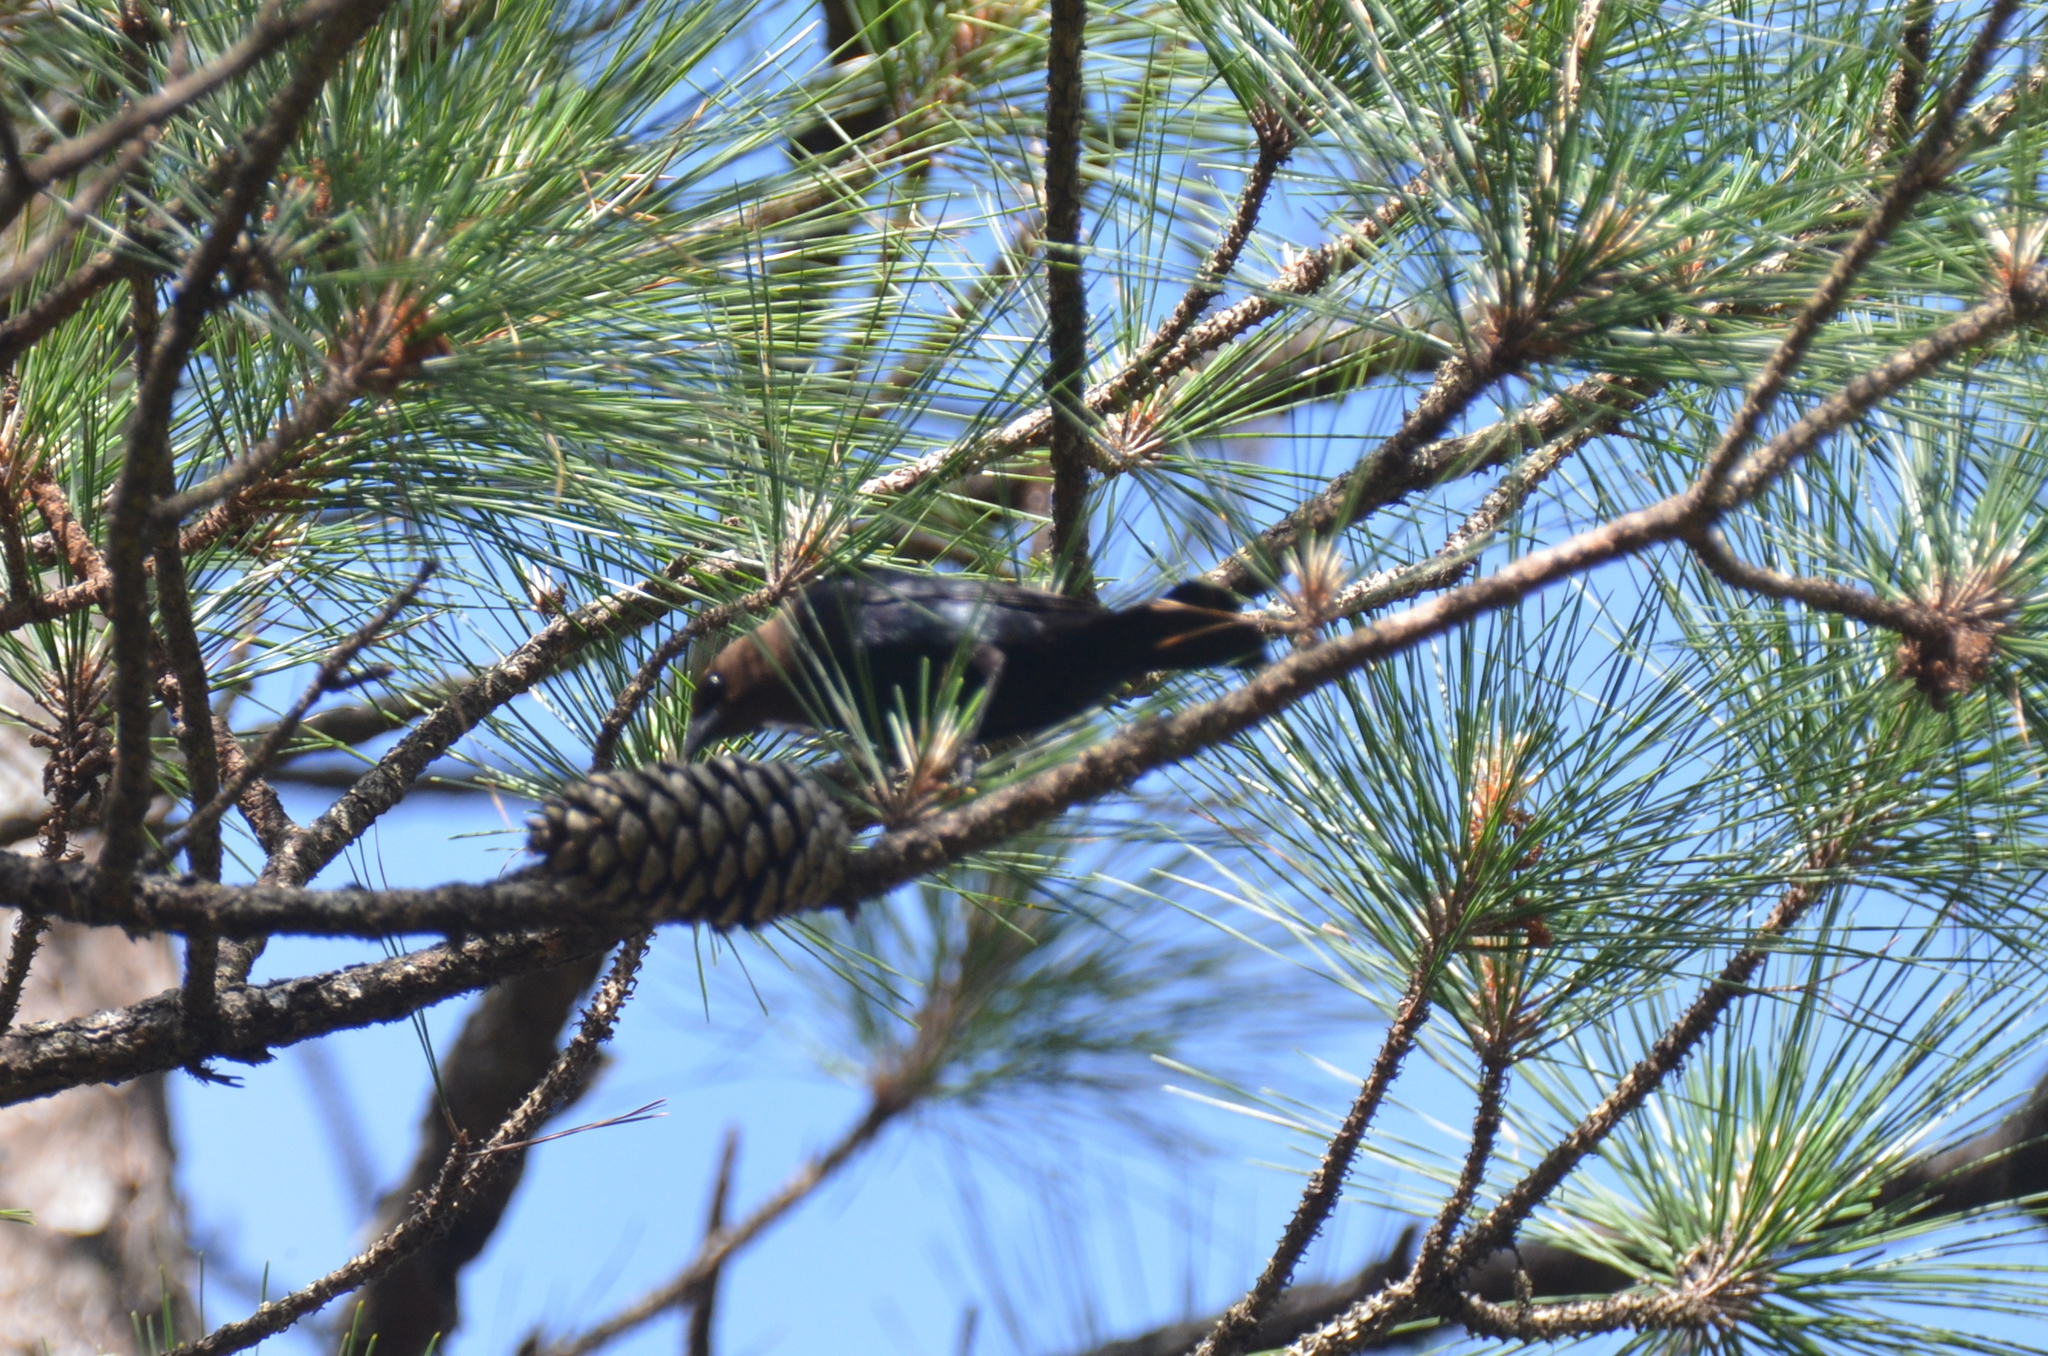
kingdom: Animalia
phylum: Chordata
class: Aves
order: Passeriformes
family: Icteridae
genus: Molothrus
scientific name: Molothrus ater
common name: Brown-headed cowbird
